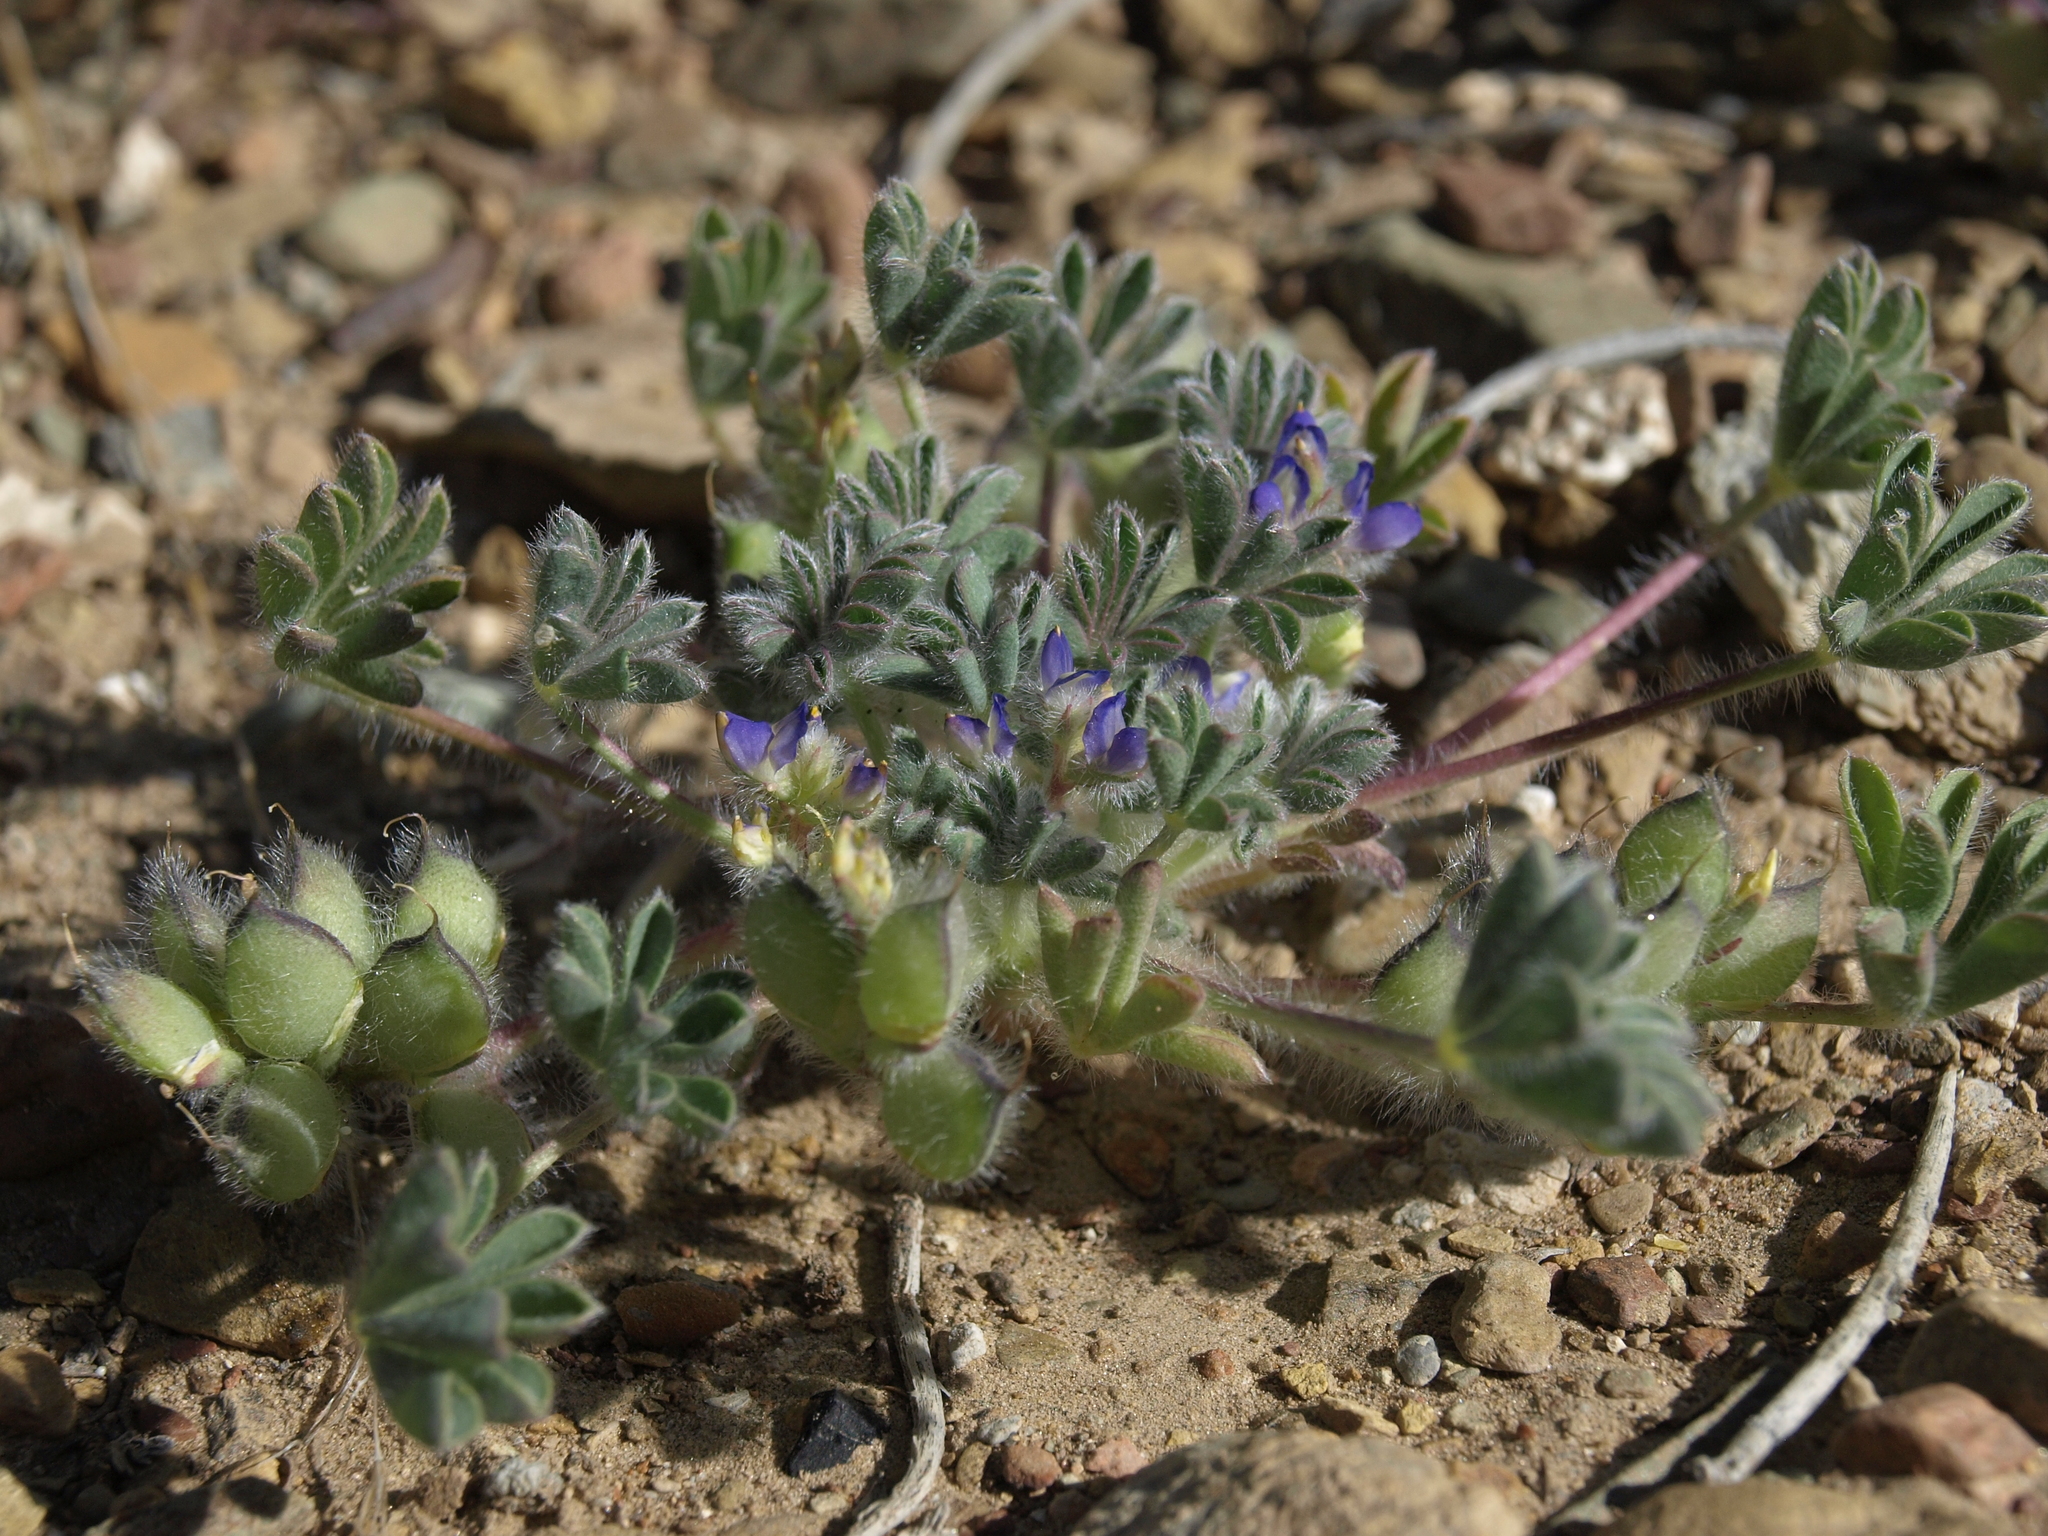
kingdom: Plantae
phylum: Tracheophyta
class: Magnoliopsida
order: Fabales
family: Fabaceae
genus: Lupinus
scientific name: Lupinus brevicaulis
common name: Sand lupine
